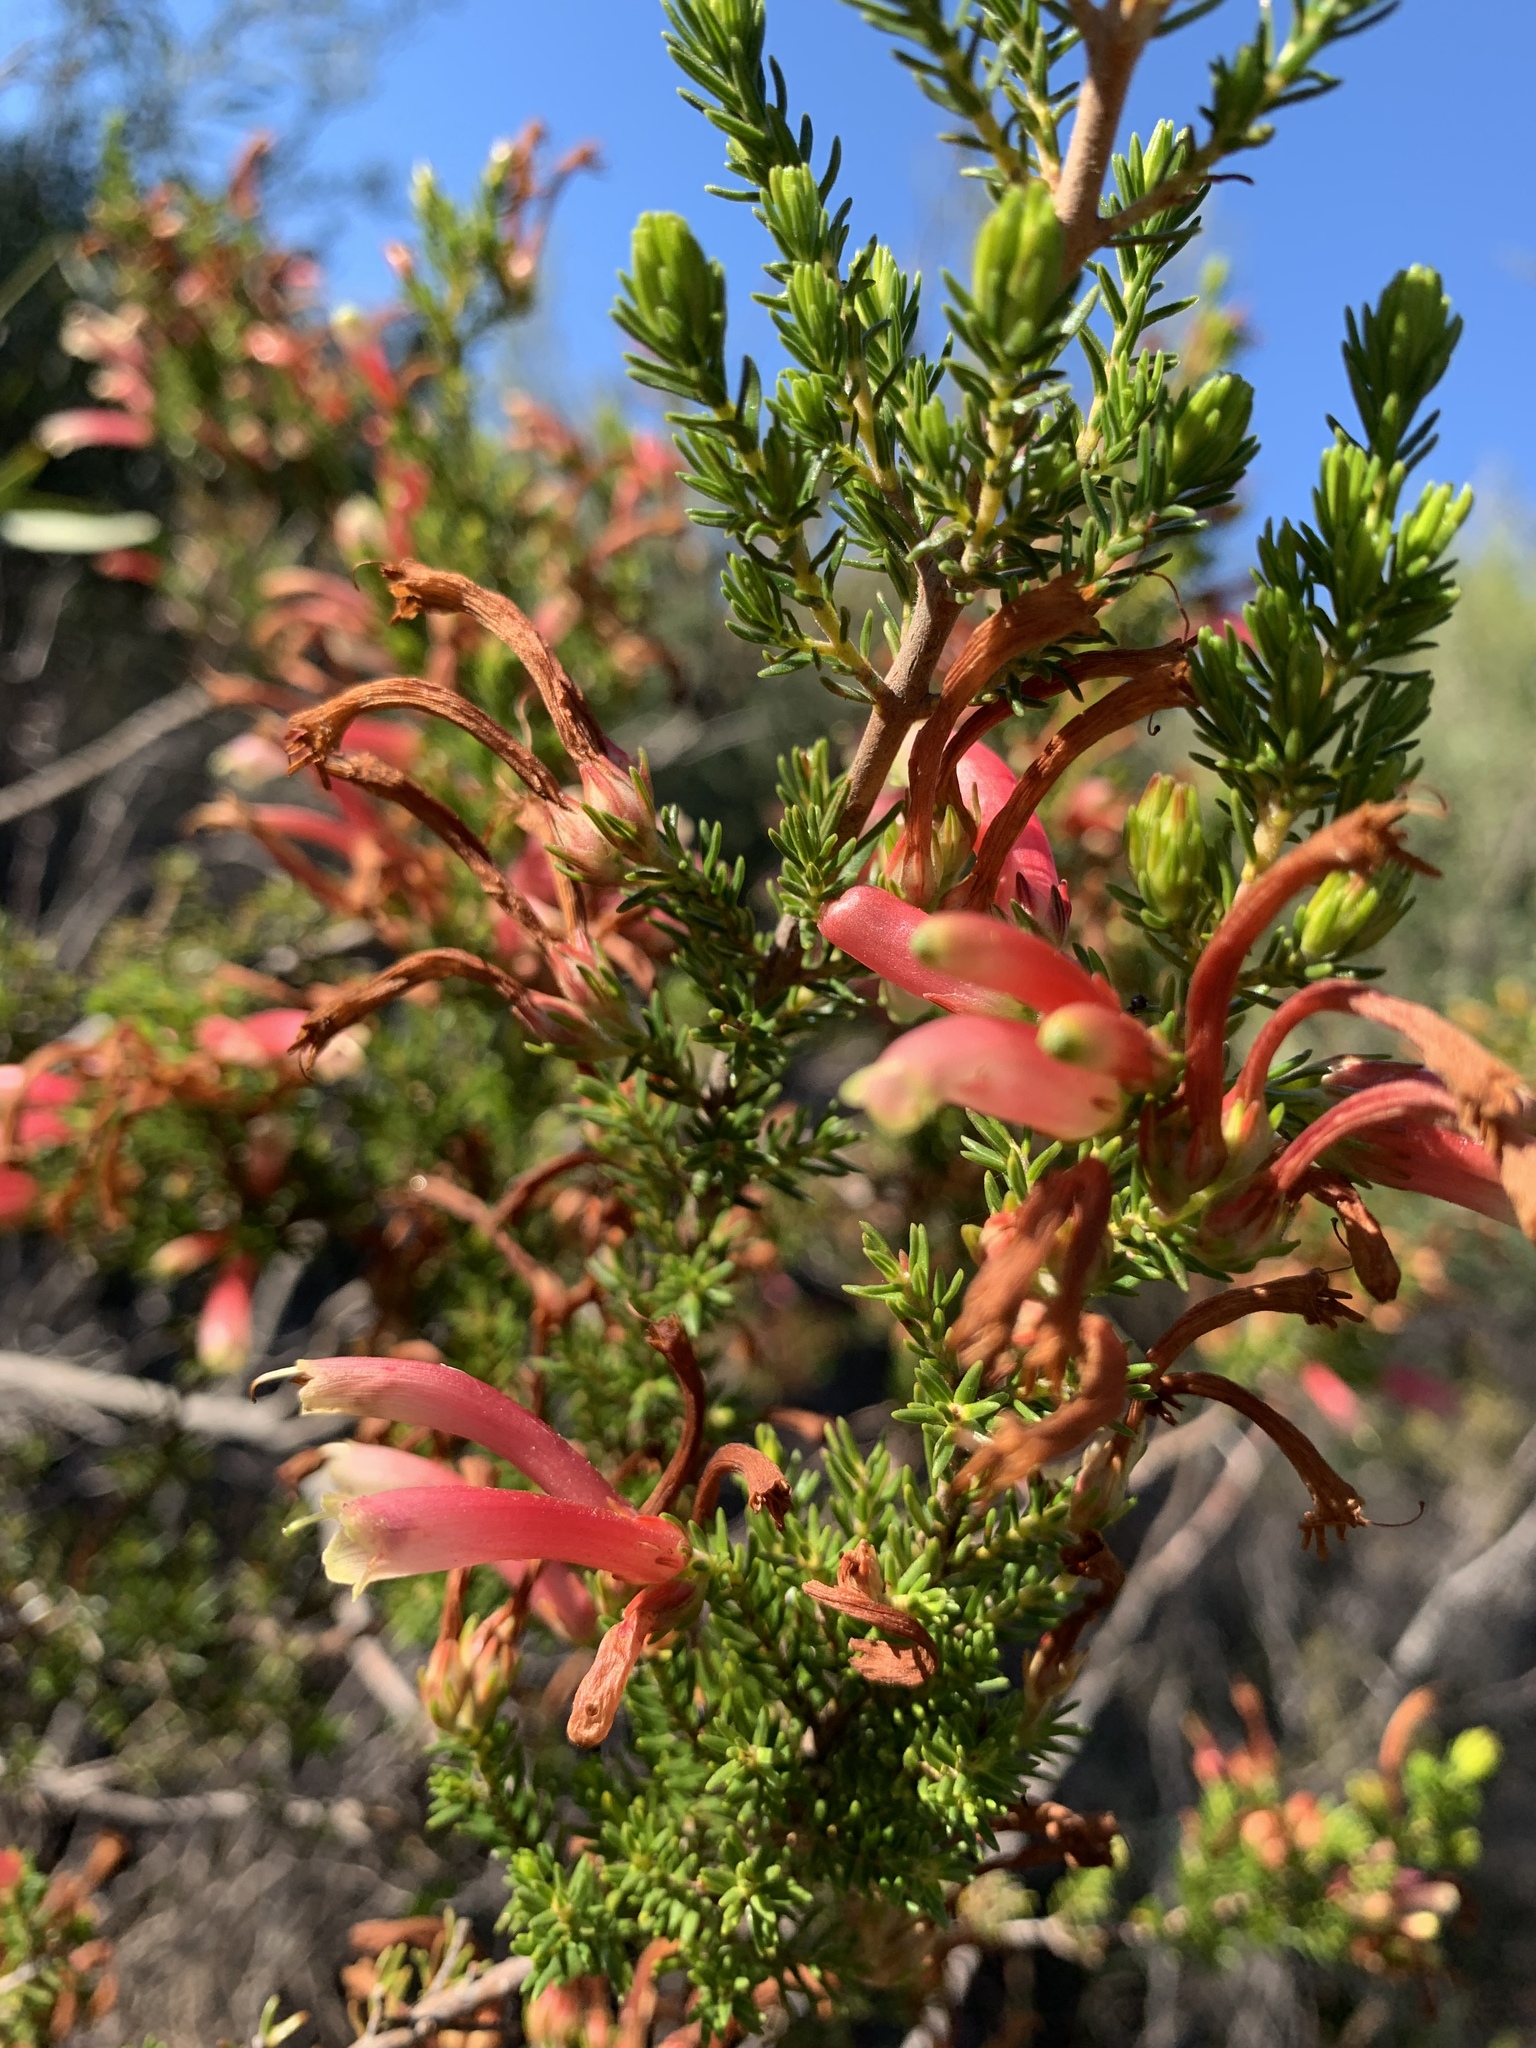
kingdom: Plantae
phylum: Tracheophyta
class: Magnoliopsida
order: Ericales
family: Ericaceae
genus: Erica
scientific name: Erica discolor
